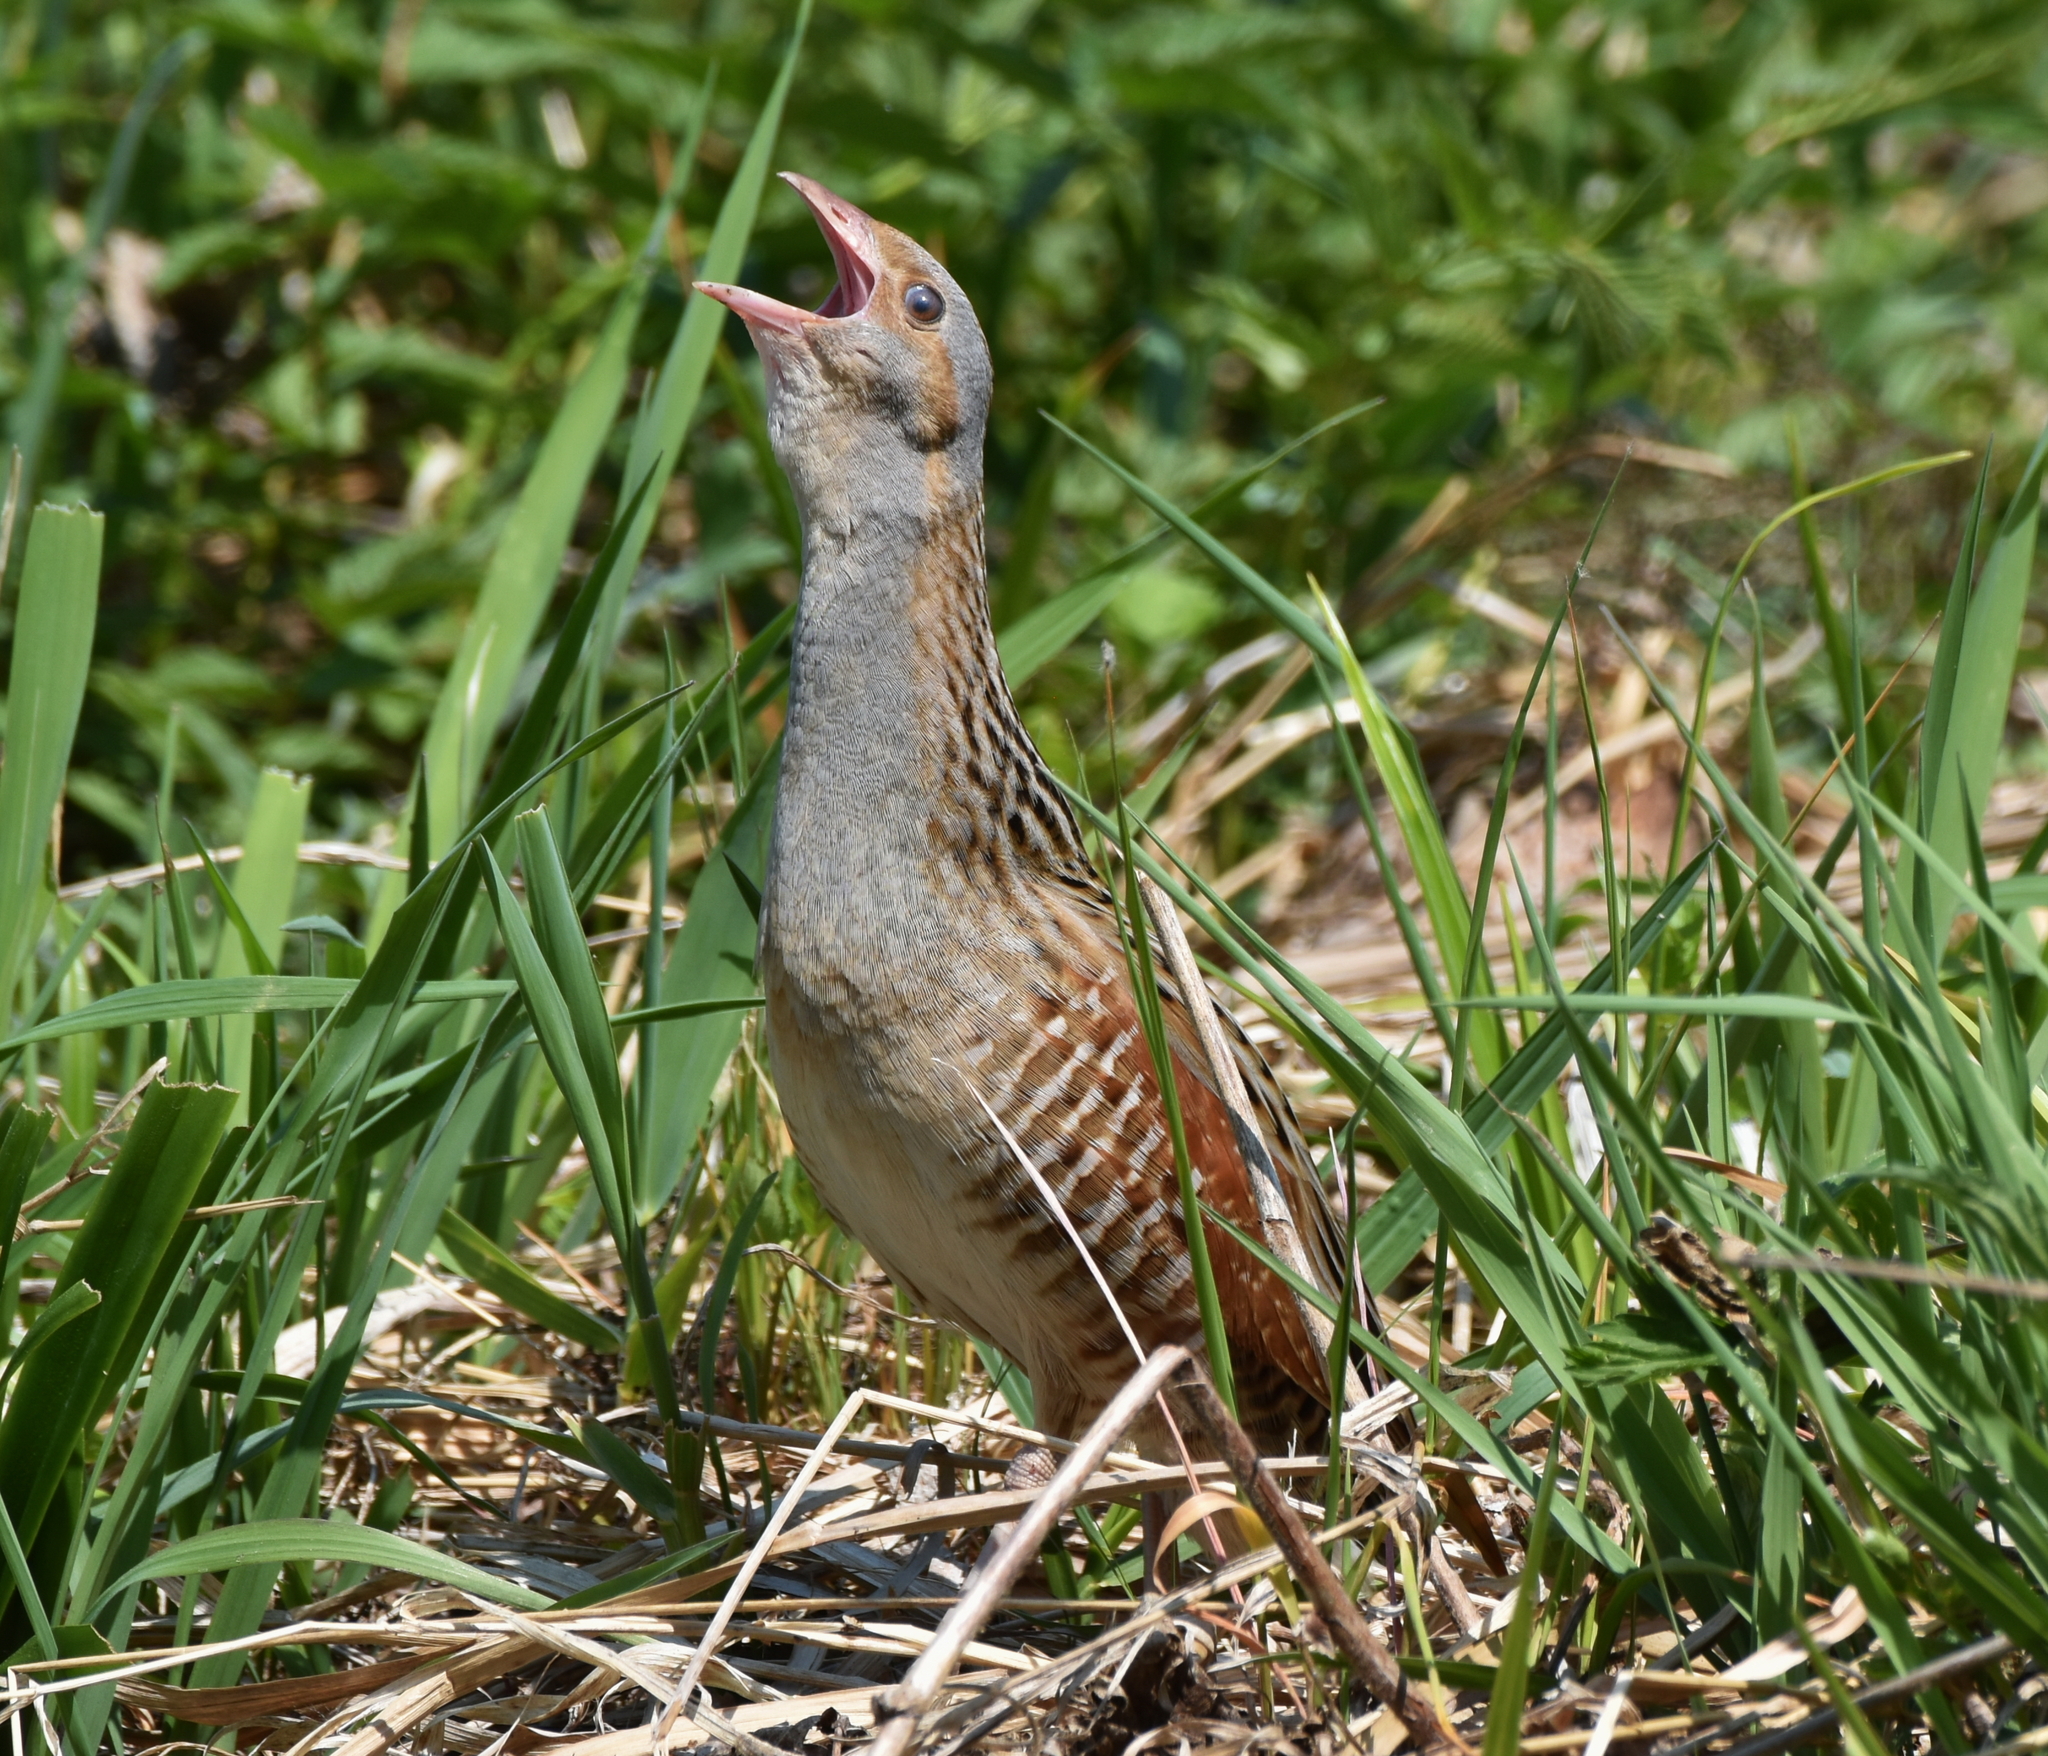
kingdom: Animalia
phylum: Chordata
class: Aves
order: Gruiformes
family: Rallidae
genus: Crex
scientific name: Crex crex
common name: Corn crake
